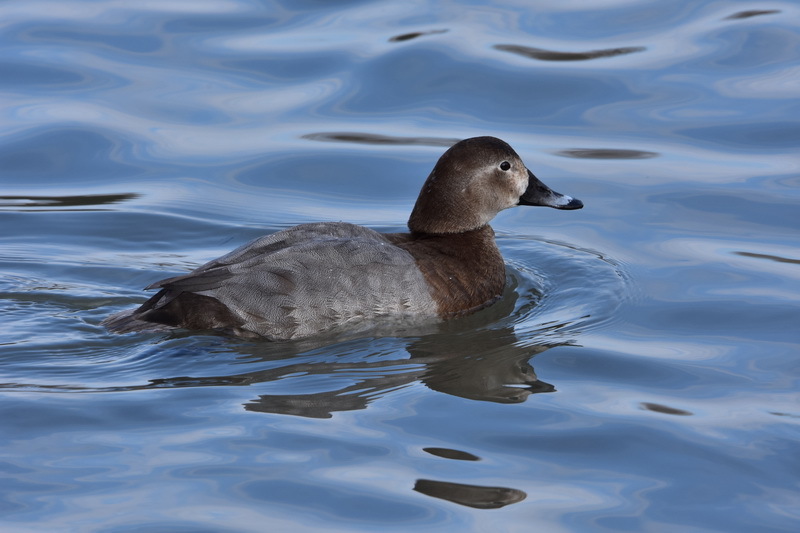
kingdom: Animalia
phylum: Chordata
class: Aves
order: Anseriformes
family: Anatidae
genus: Aythya
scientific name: Aythya ferina
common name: Common pochard
